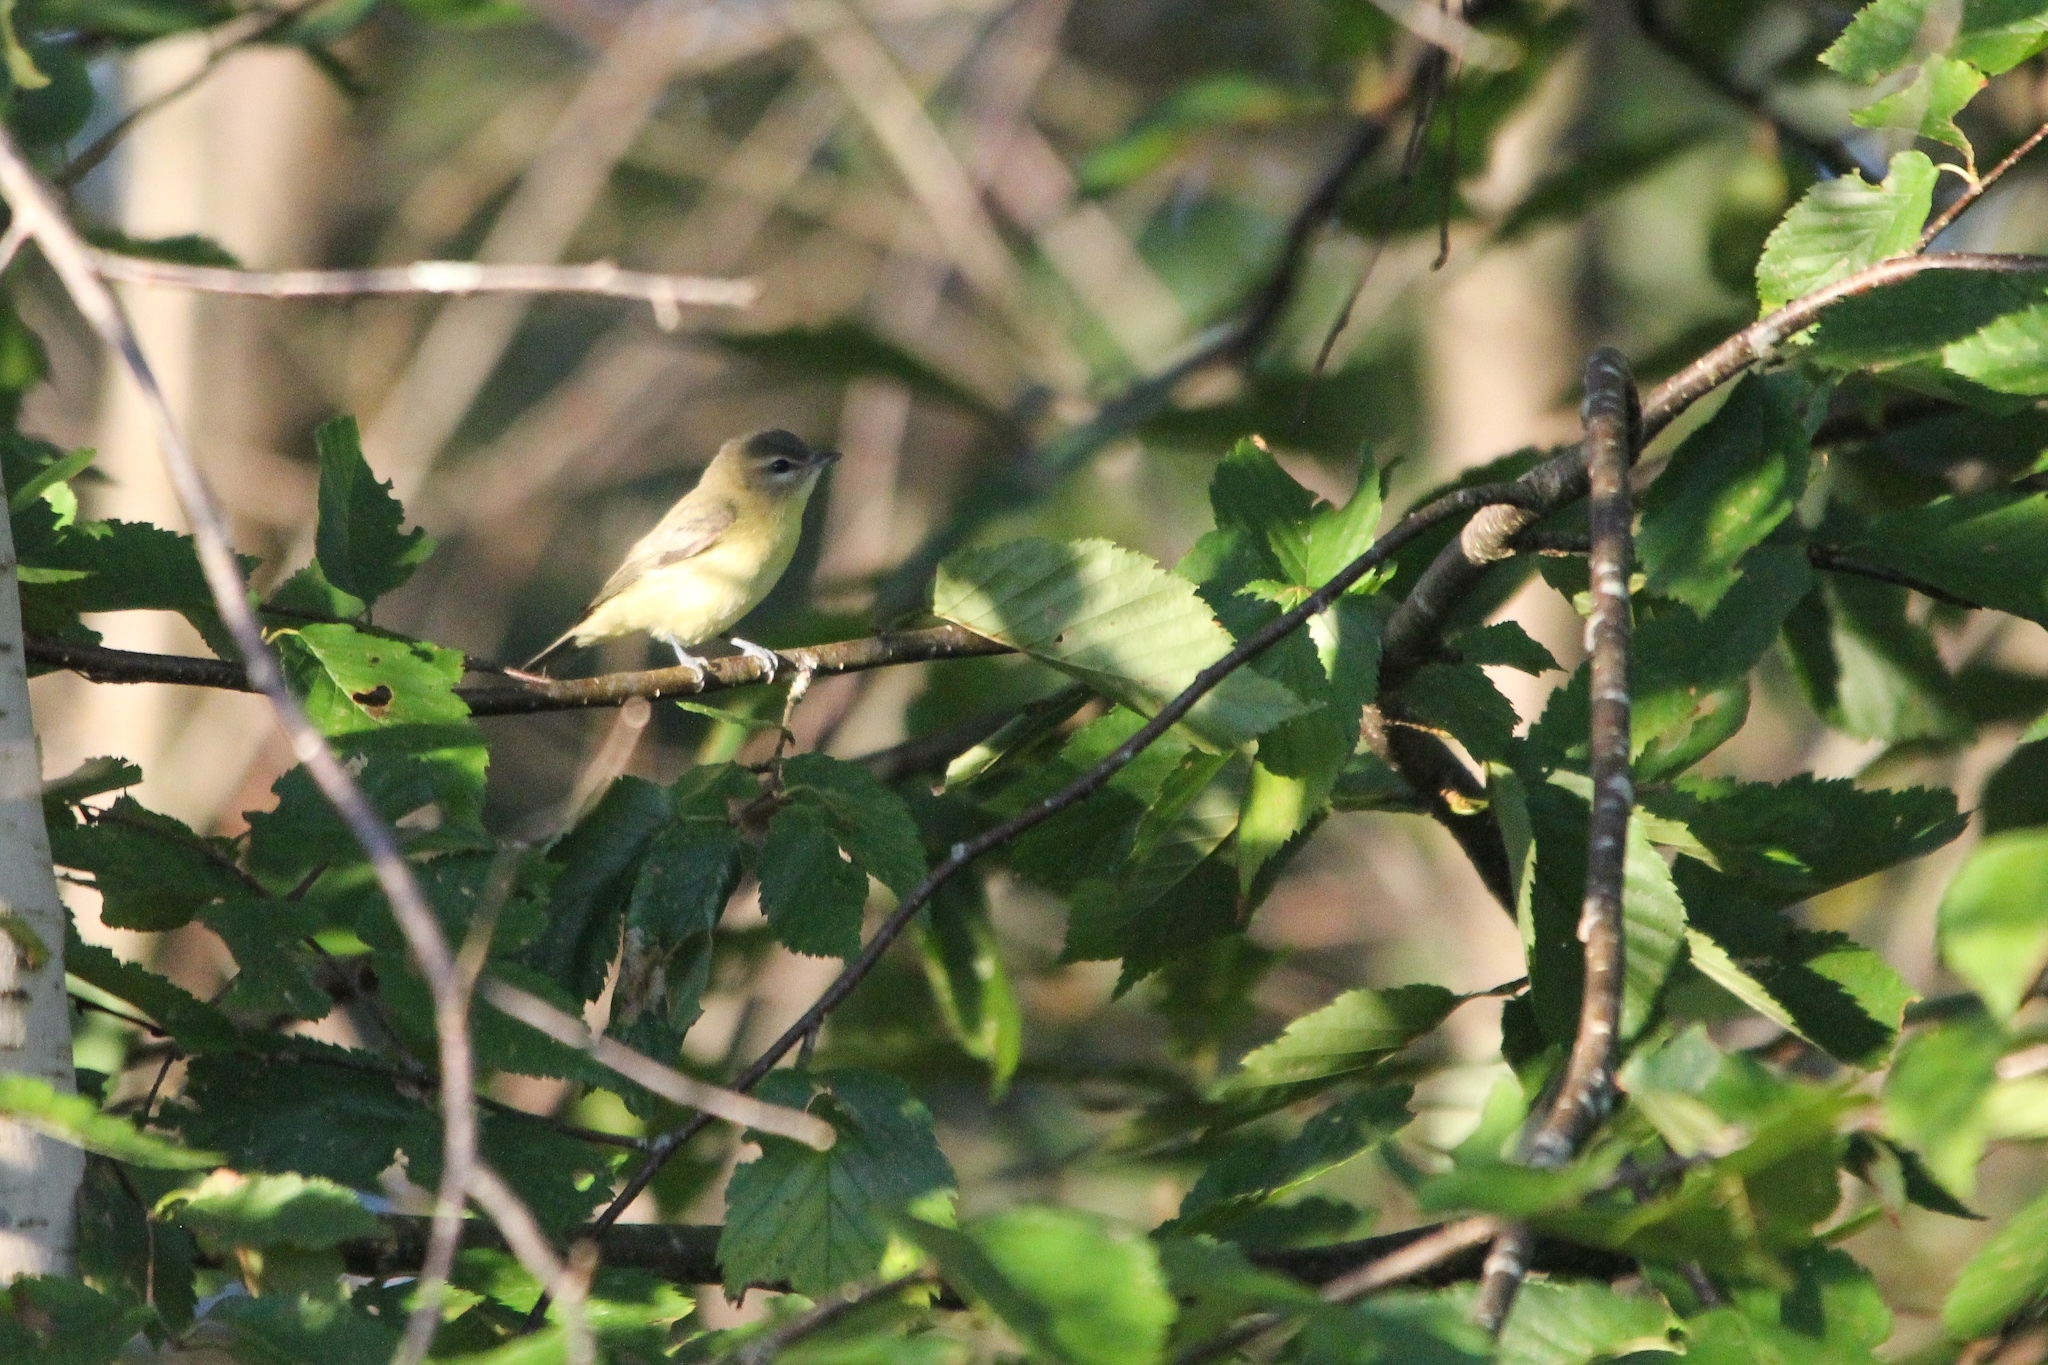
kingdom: Animalia
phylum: Chordata
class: Aves
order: Passeriformes
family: Vireonidae
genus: Vireo
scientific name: Vireo philadelphicus
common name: Philadelphia vireo
